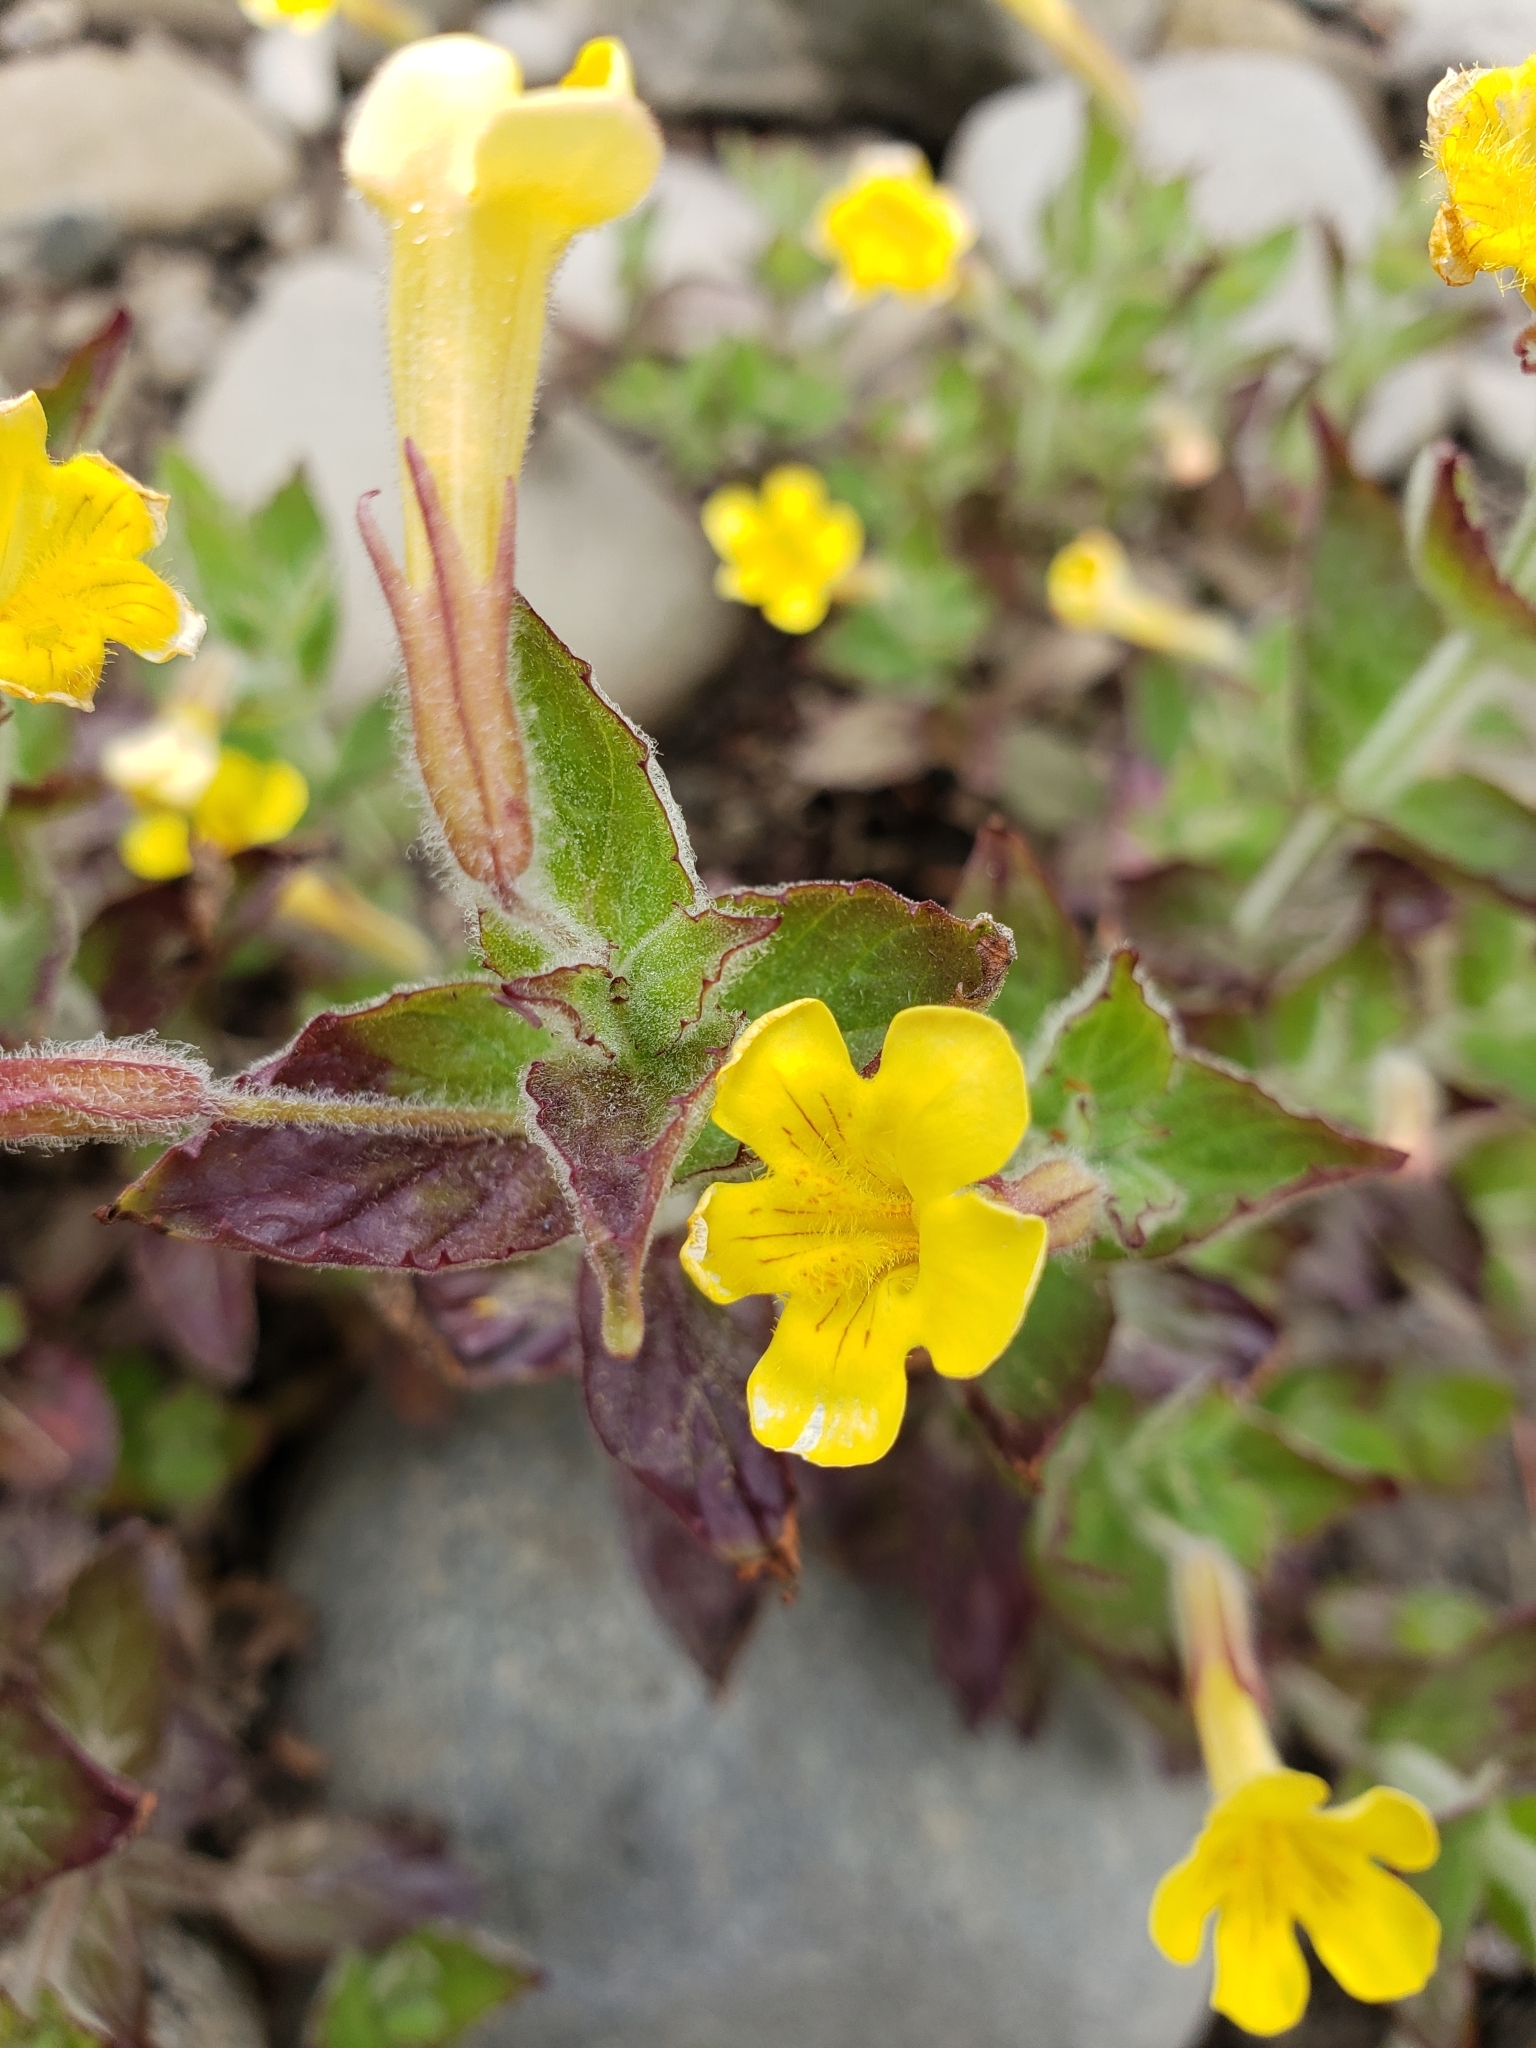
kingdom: Plantae
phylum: Tracheophyta
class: Magnoliopsida
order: Lamiales
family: Phrymaceae
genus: Erythranthe
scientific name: Erythranthe ptilota
